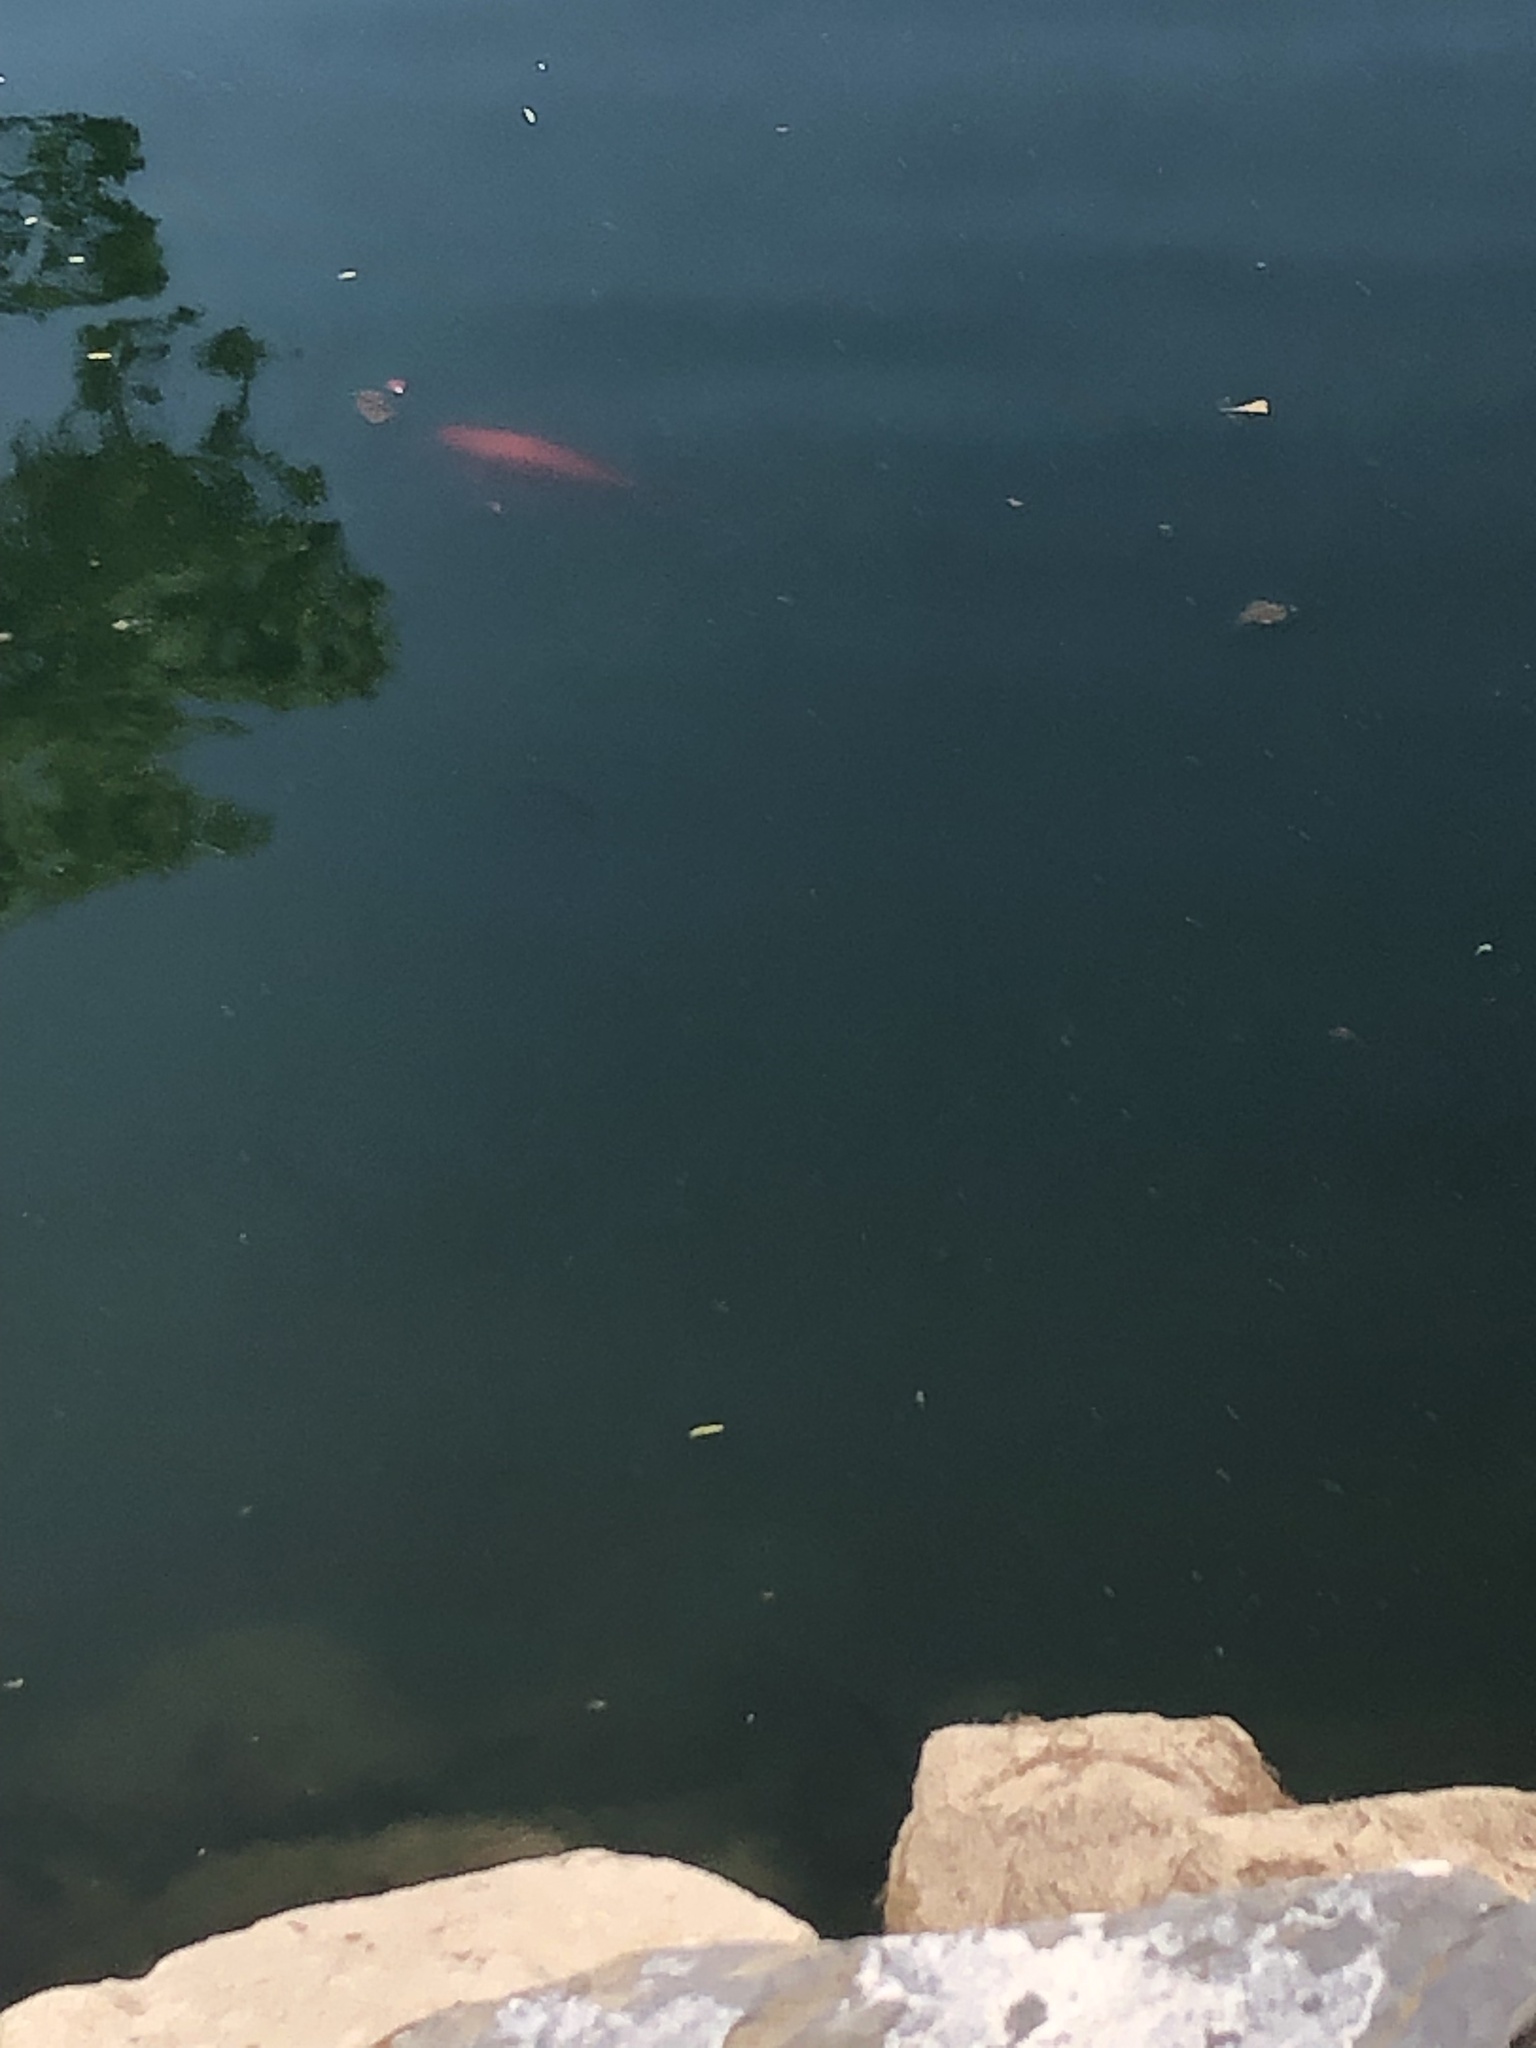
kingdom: Animalia
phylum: Chordata
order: Cypriniformes
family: Cyprinidae
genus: Carassius
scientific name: Carassius auratus
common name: Goldfish
